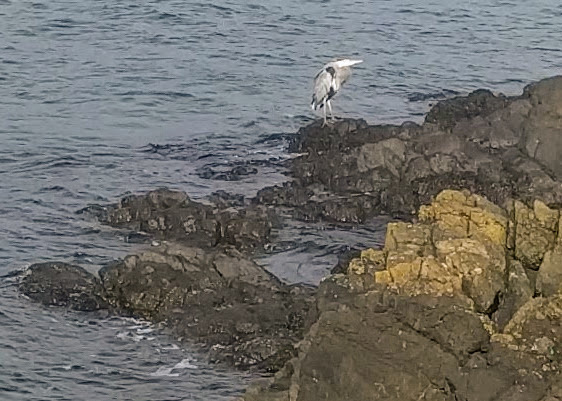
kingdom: Animalia
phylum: Chordata
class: Aves
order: Pelecaniformes
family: Ardeidae
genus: Ardea
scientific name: Ardea herodias
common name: Great blue heron
